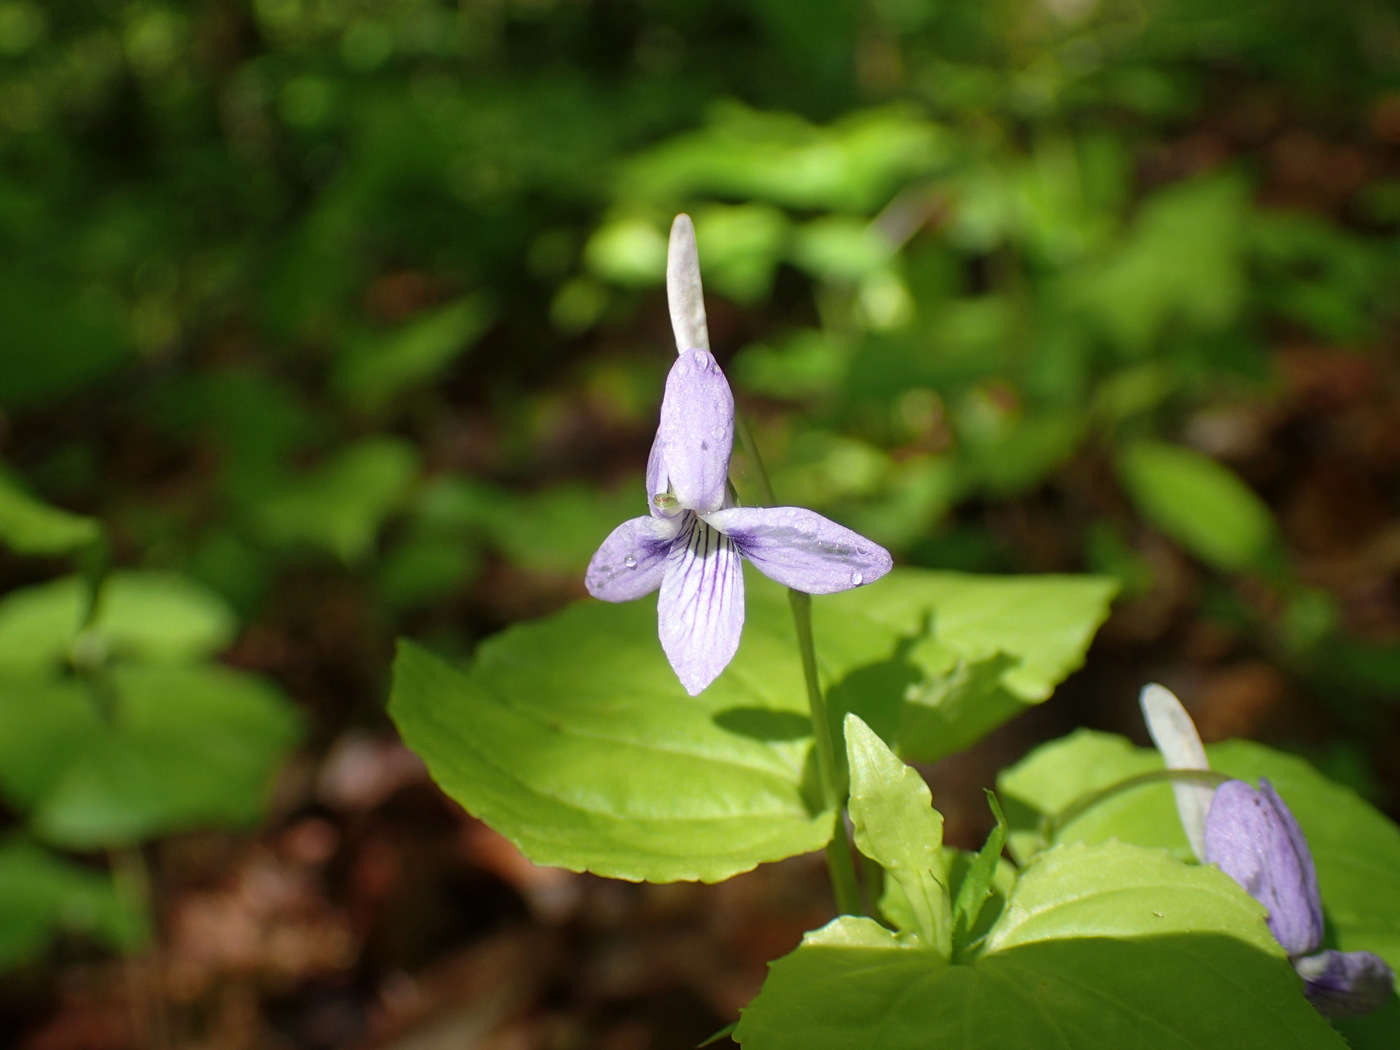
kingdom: Plantae
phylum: Tracheophyta
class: Magnoliopsida
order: Malpighiales
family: Violaceae
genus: Viola
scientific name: Viola rostrata
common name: Long-spur violet
